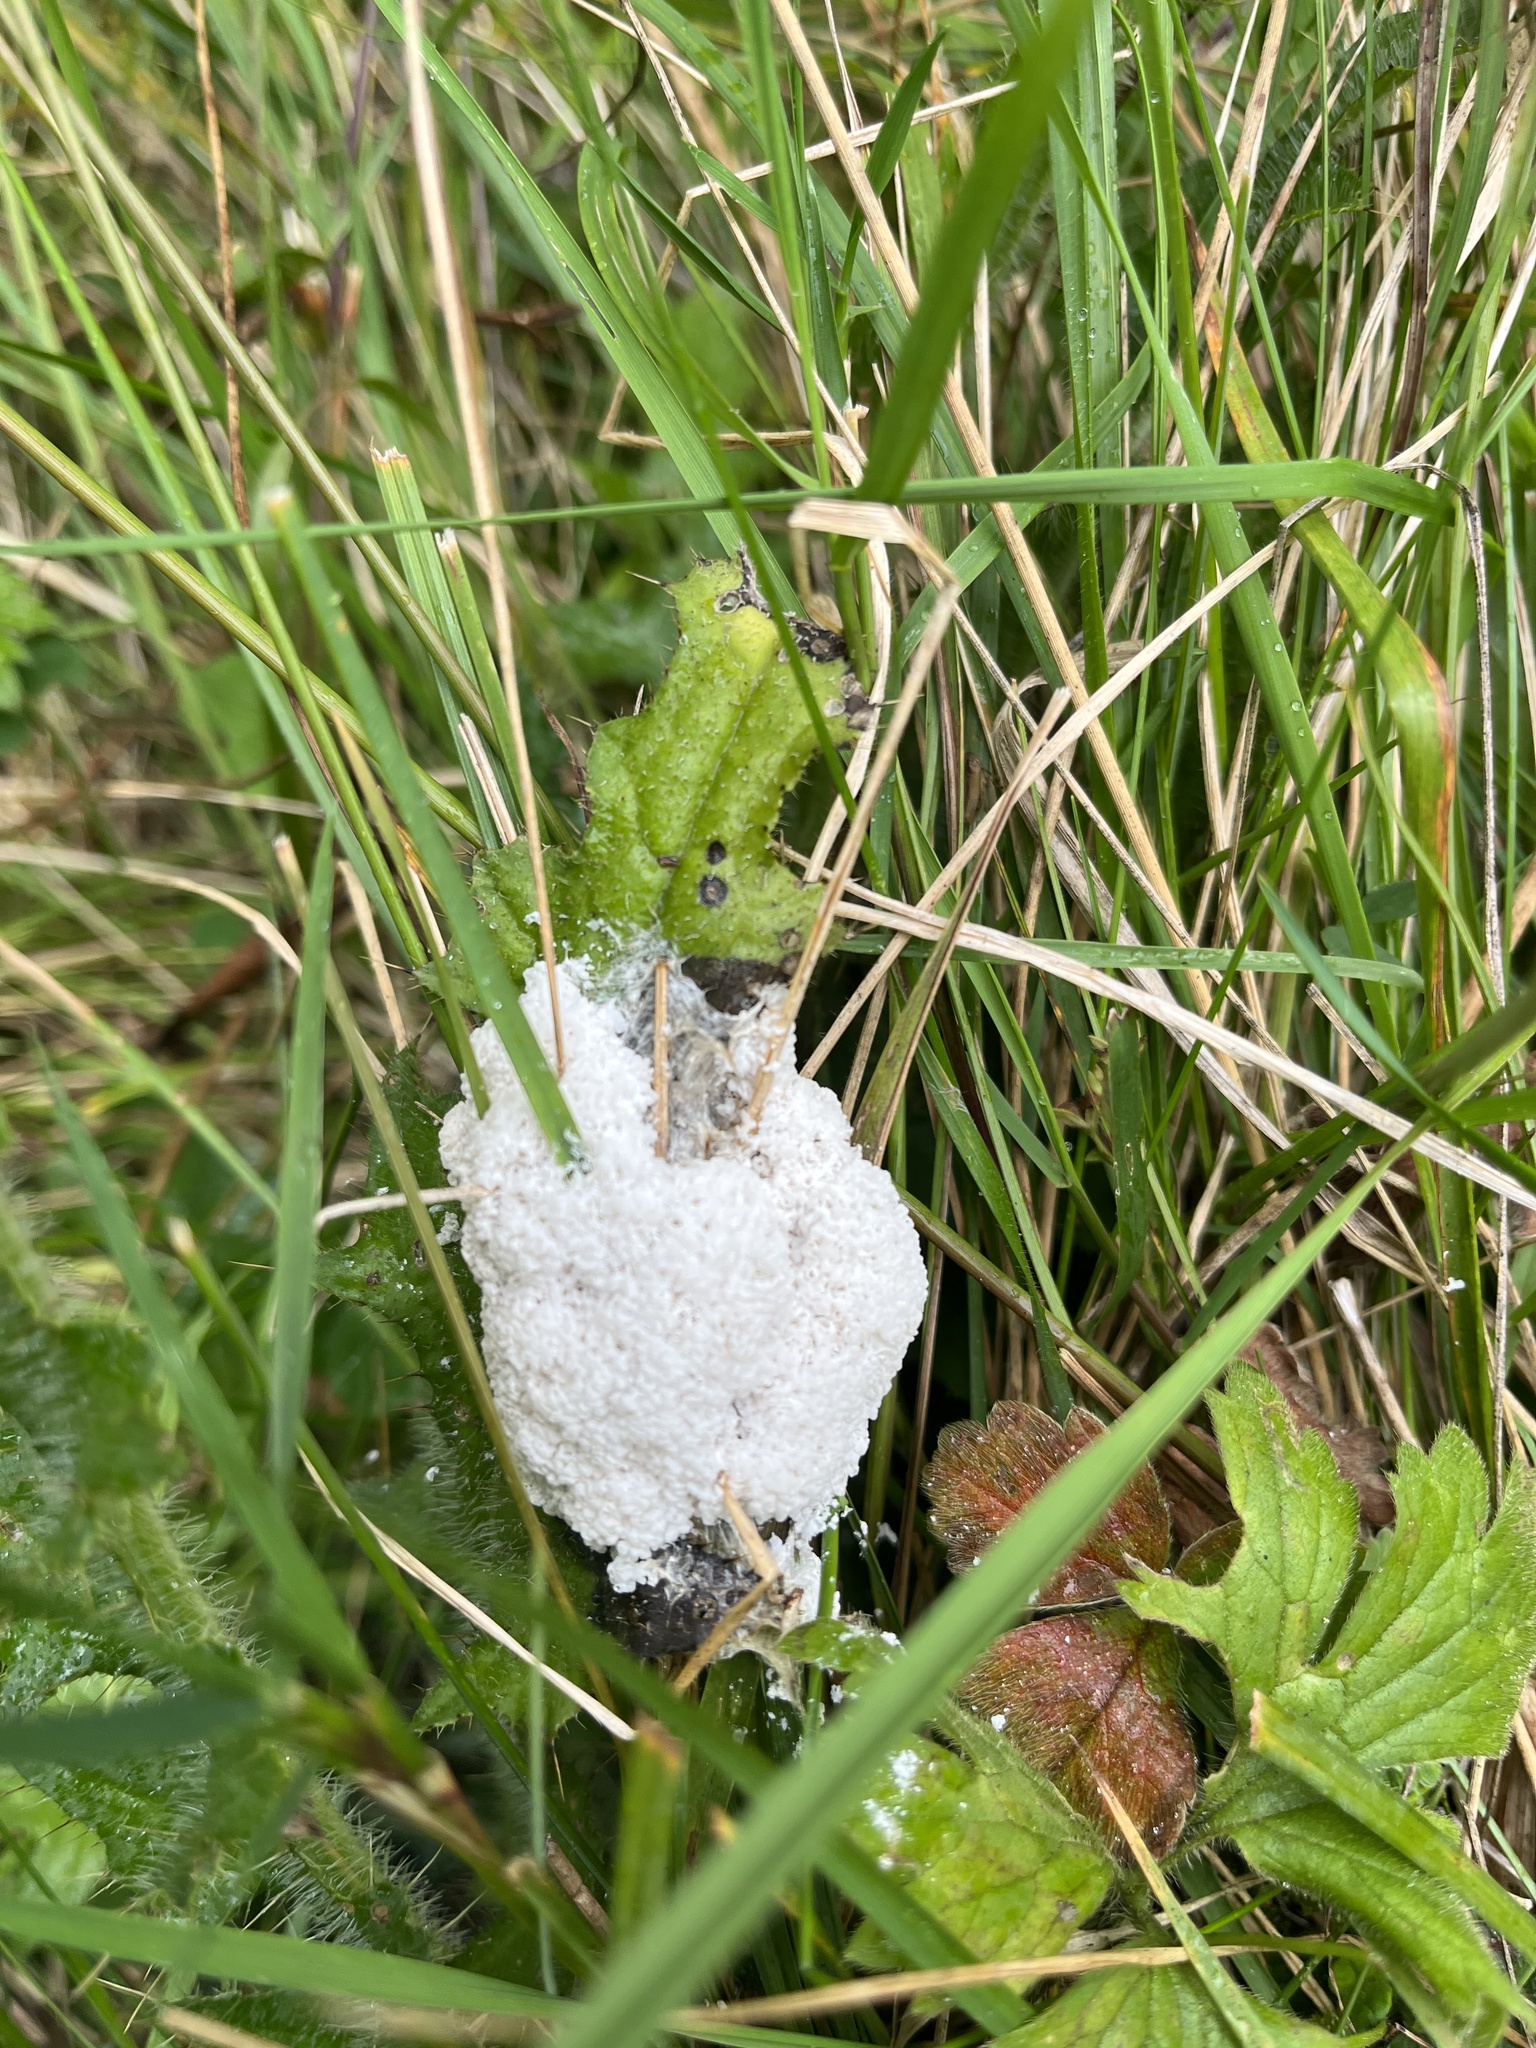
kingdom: Protozoa
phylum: Mycetozoa
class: Myxomycetes
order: Physarales
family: Physaraceae
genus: Didymium
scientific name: Didymium
